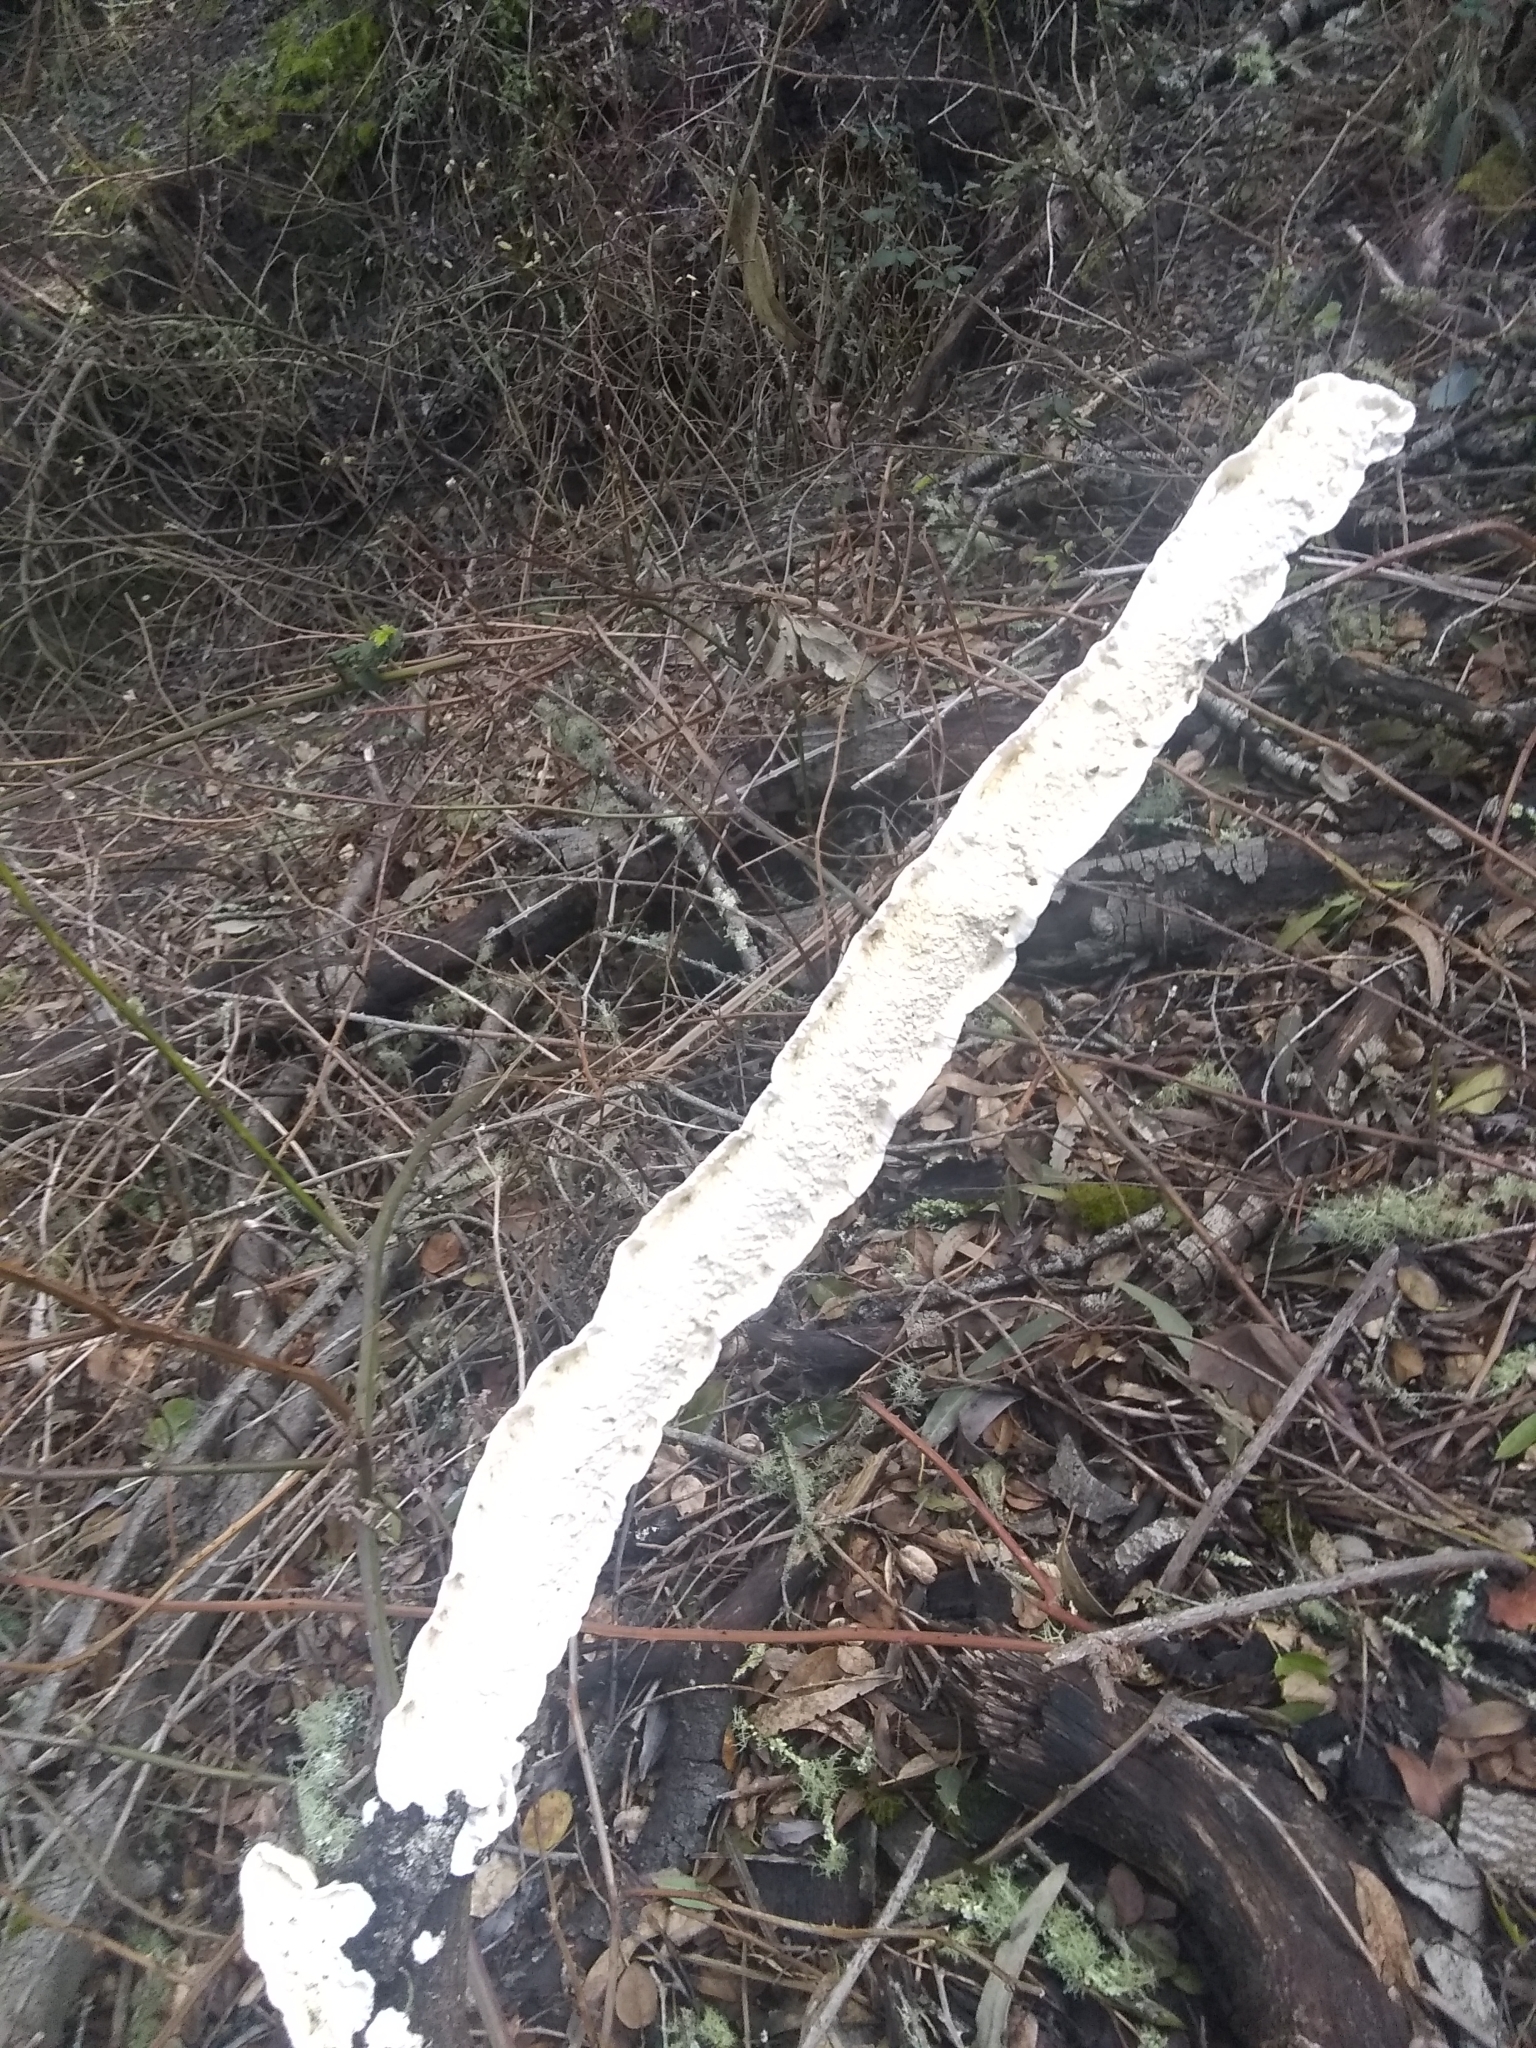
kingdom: Fungi
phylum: Basidiomycota
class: Agaricomycetes
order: Polyporales
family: Irpicaceae
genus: Byssomerulius
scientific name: Byssomerulius corium
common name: Netted crust
